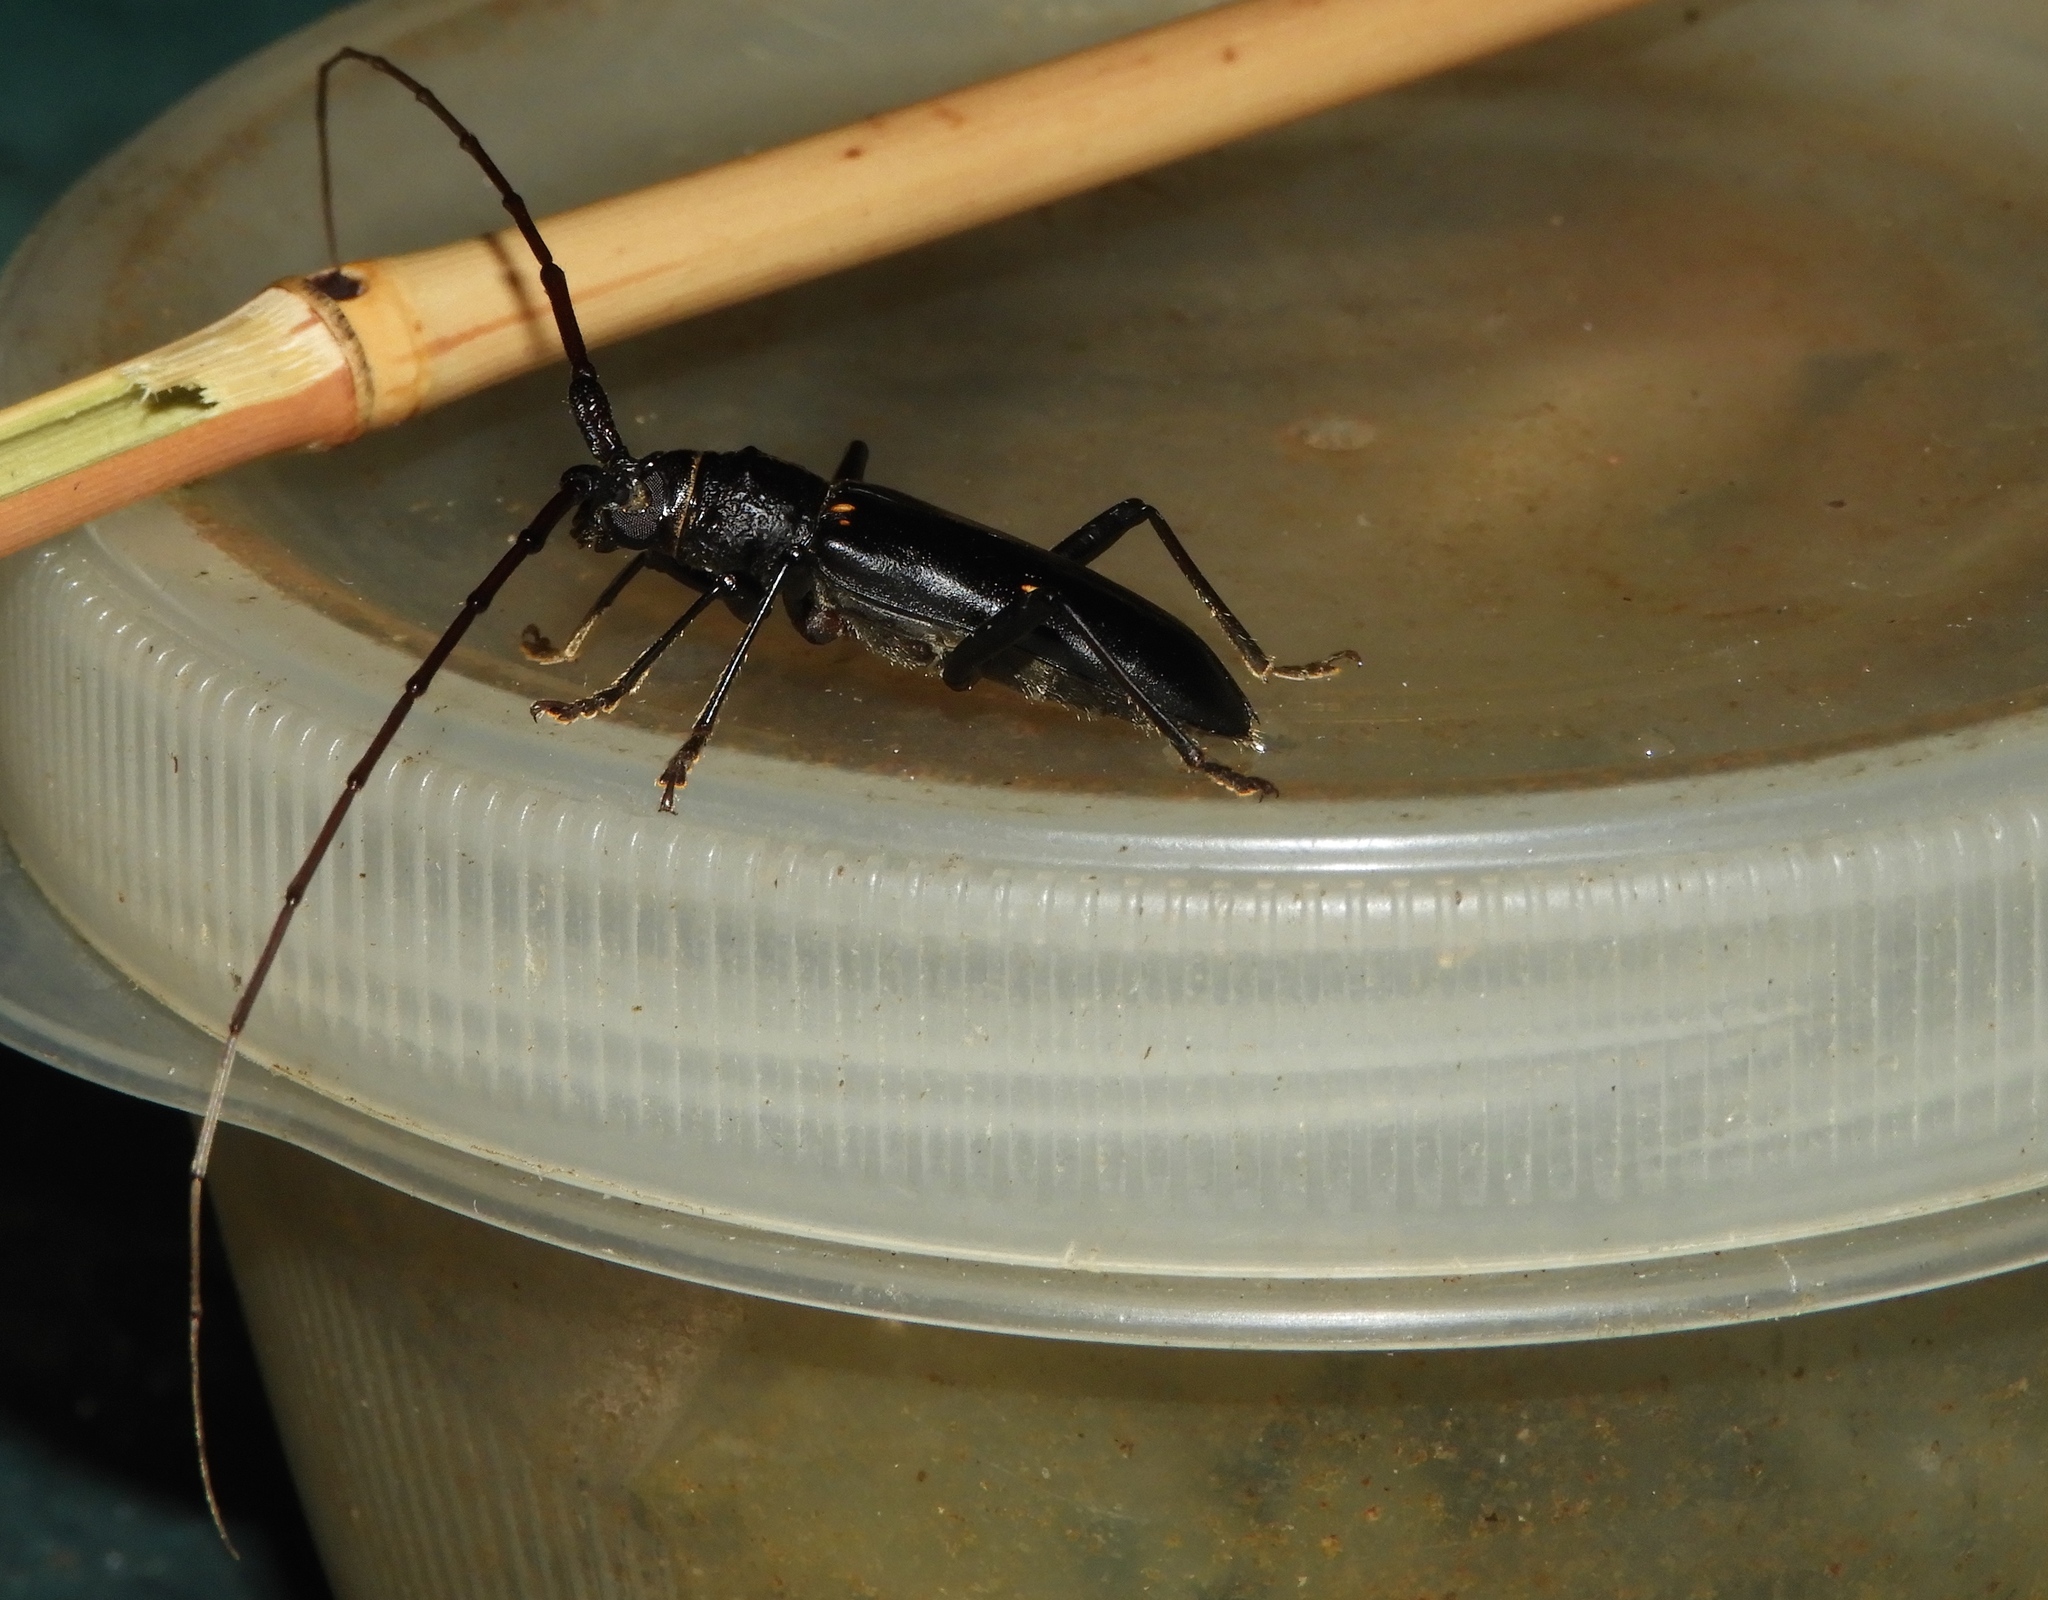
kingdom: Animalia
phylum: Arthropoda
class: Insecta
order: Coleoptera
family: Cerambycidae
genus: Susuacanga
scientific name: Susuacanga falli
